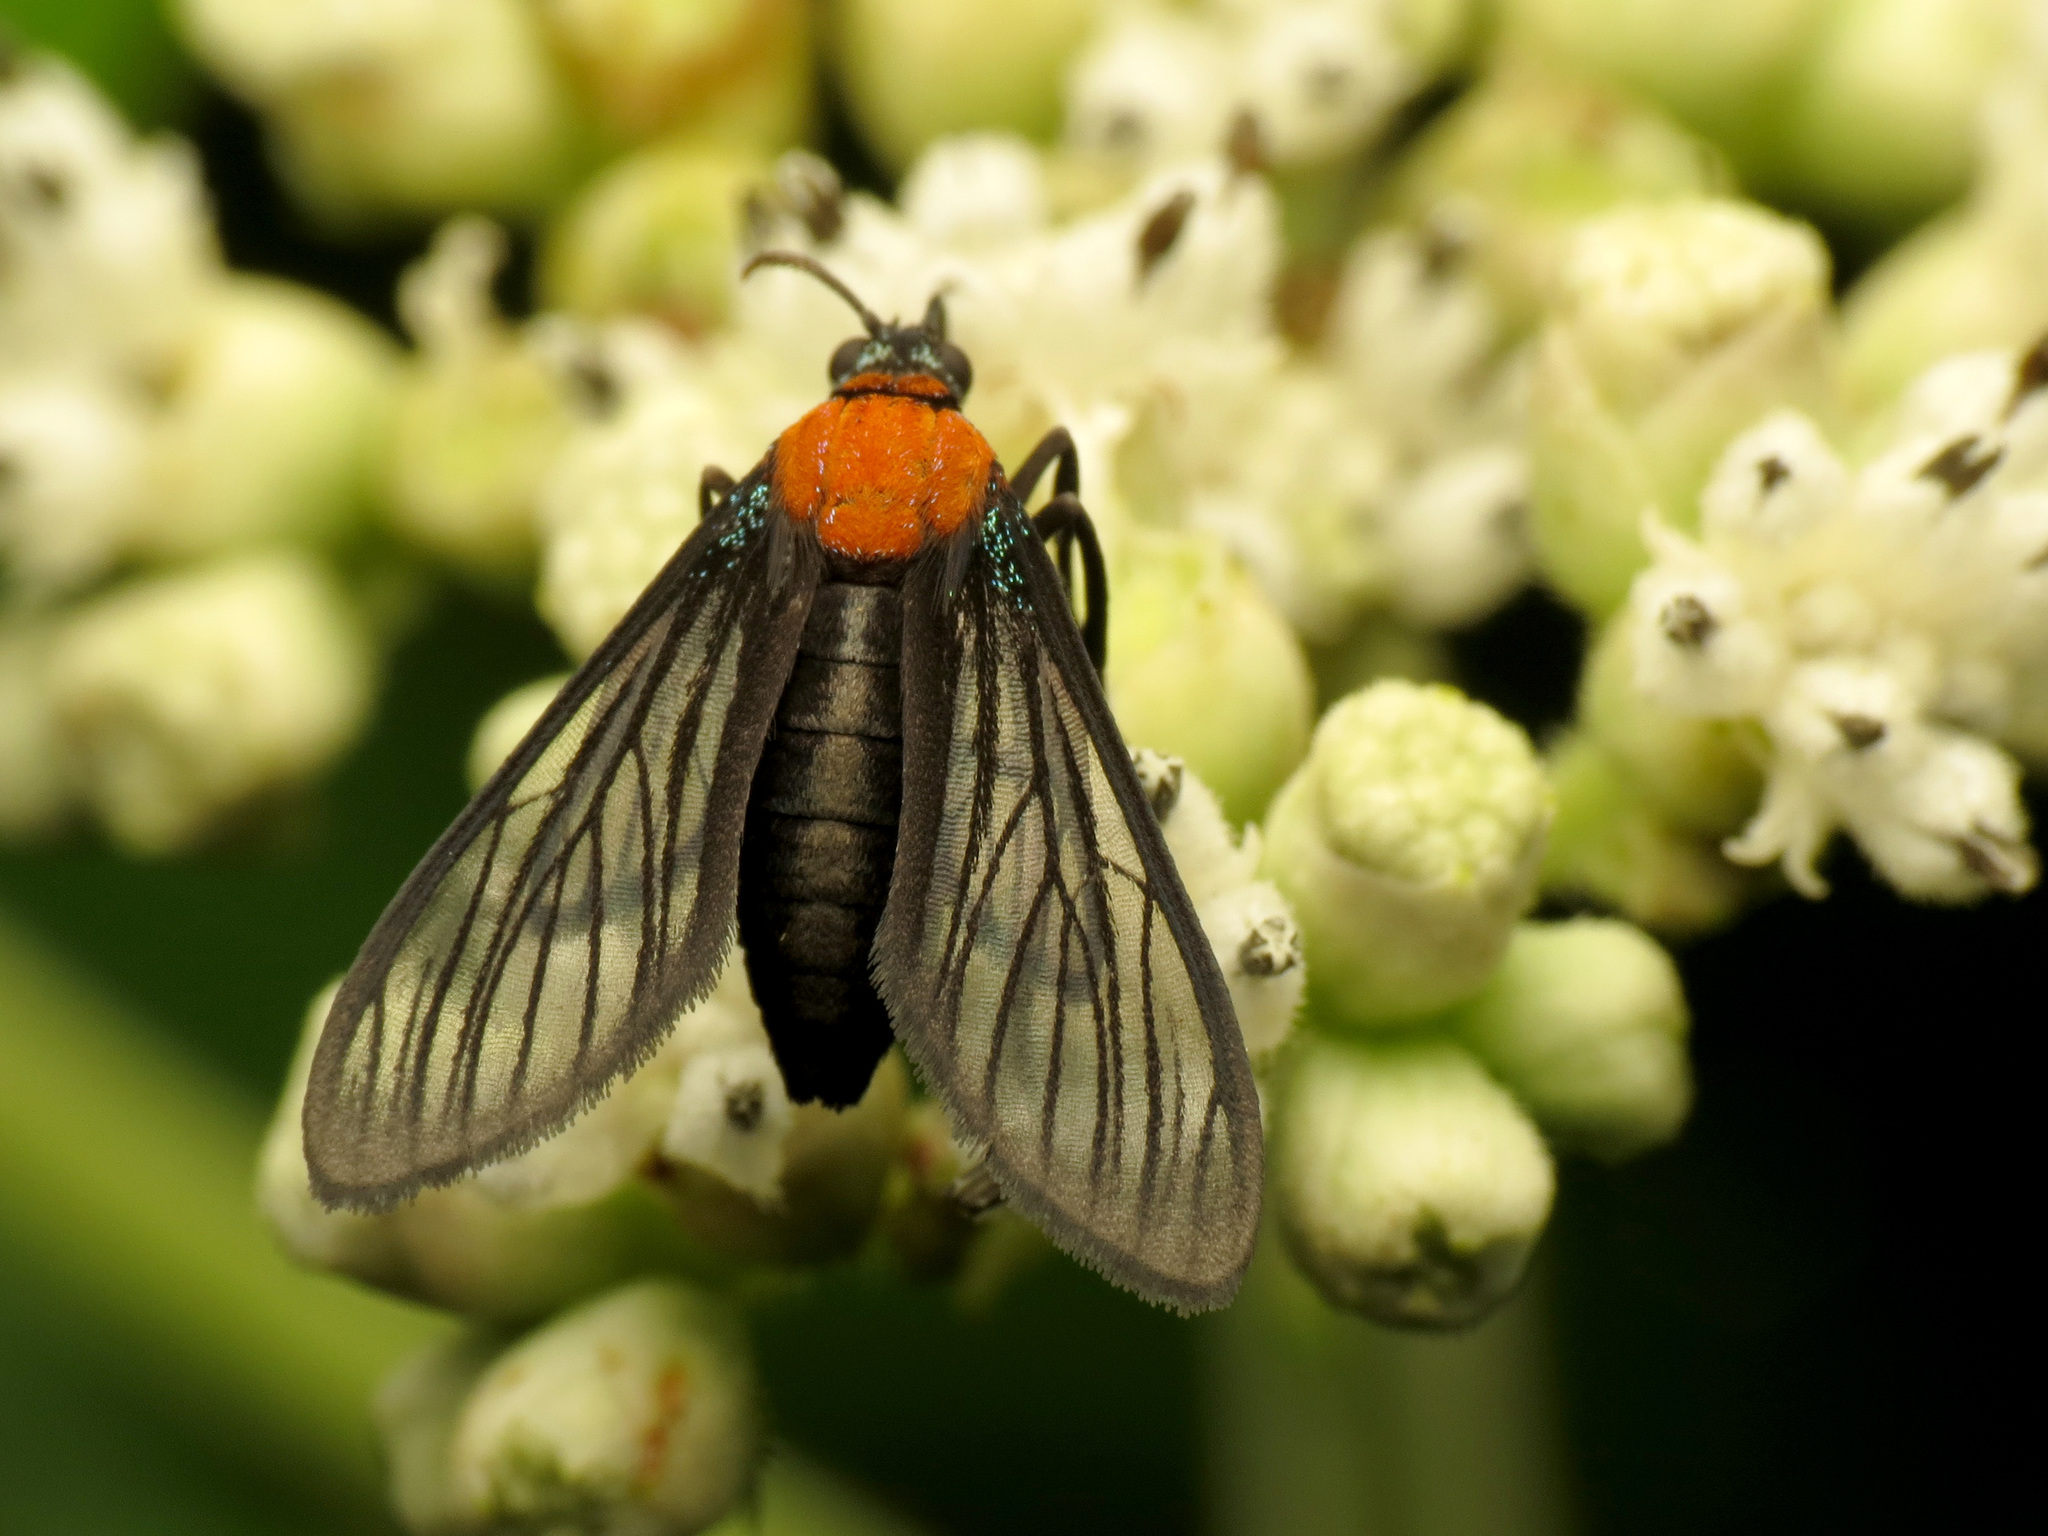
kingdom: Animalia
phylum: Arthropoda
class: Insecta
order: Lepidoptera
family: Erebidae
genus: Sauritinia
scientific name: Sauritinia dubiosa
